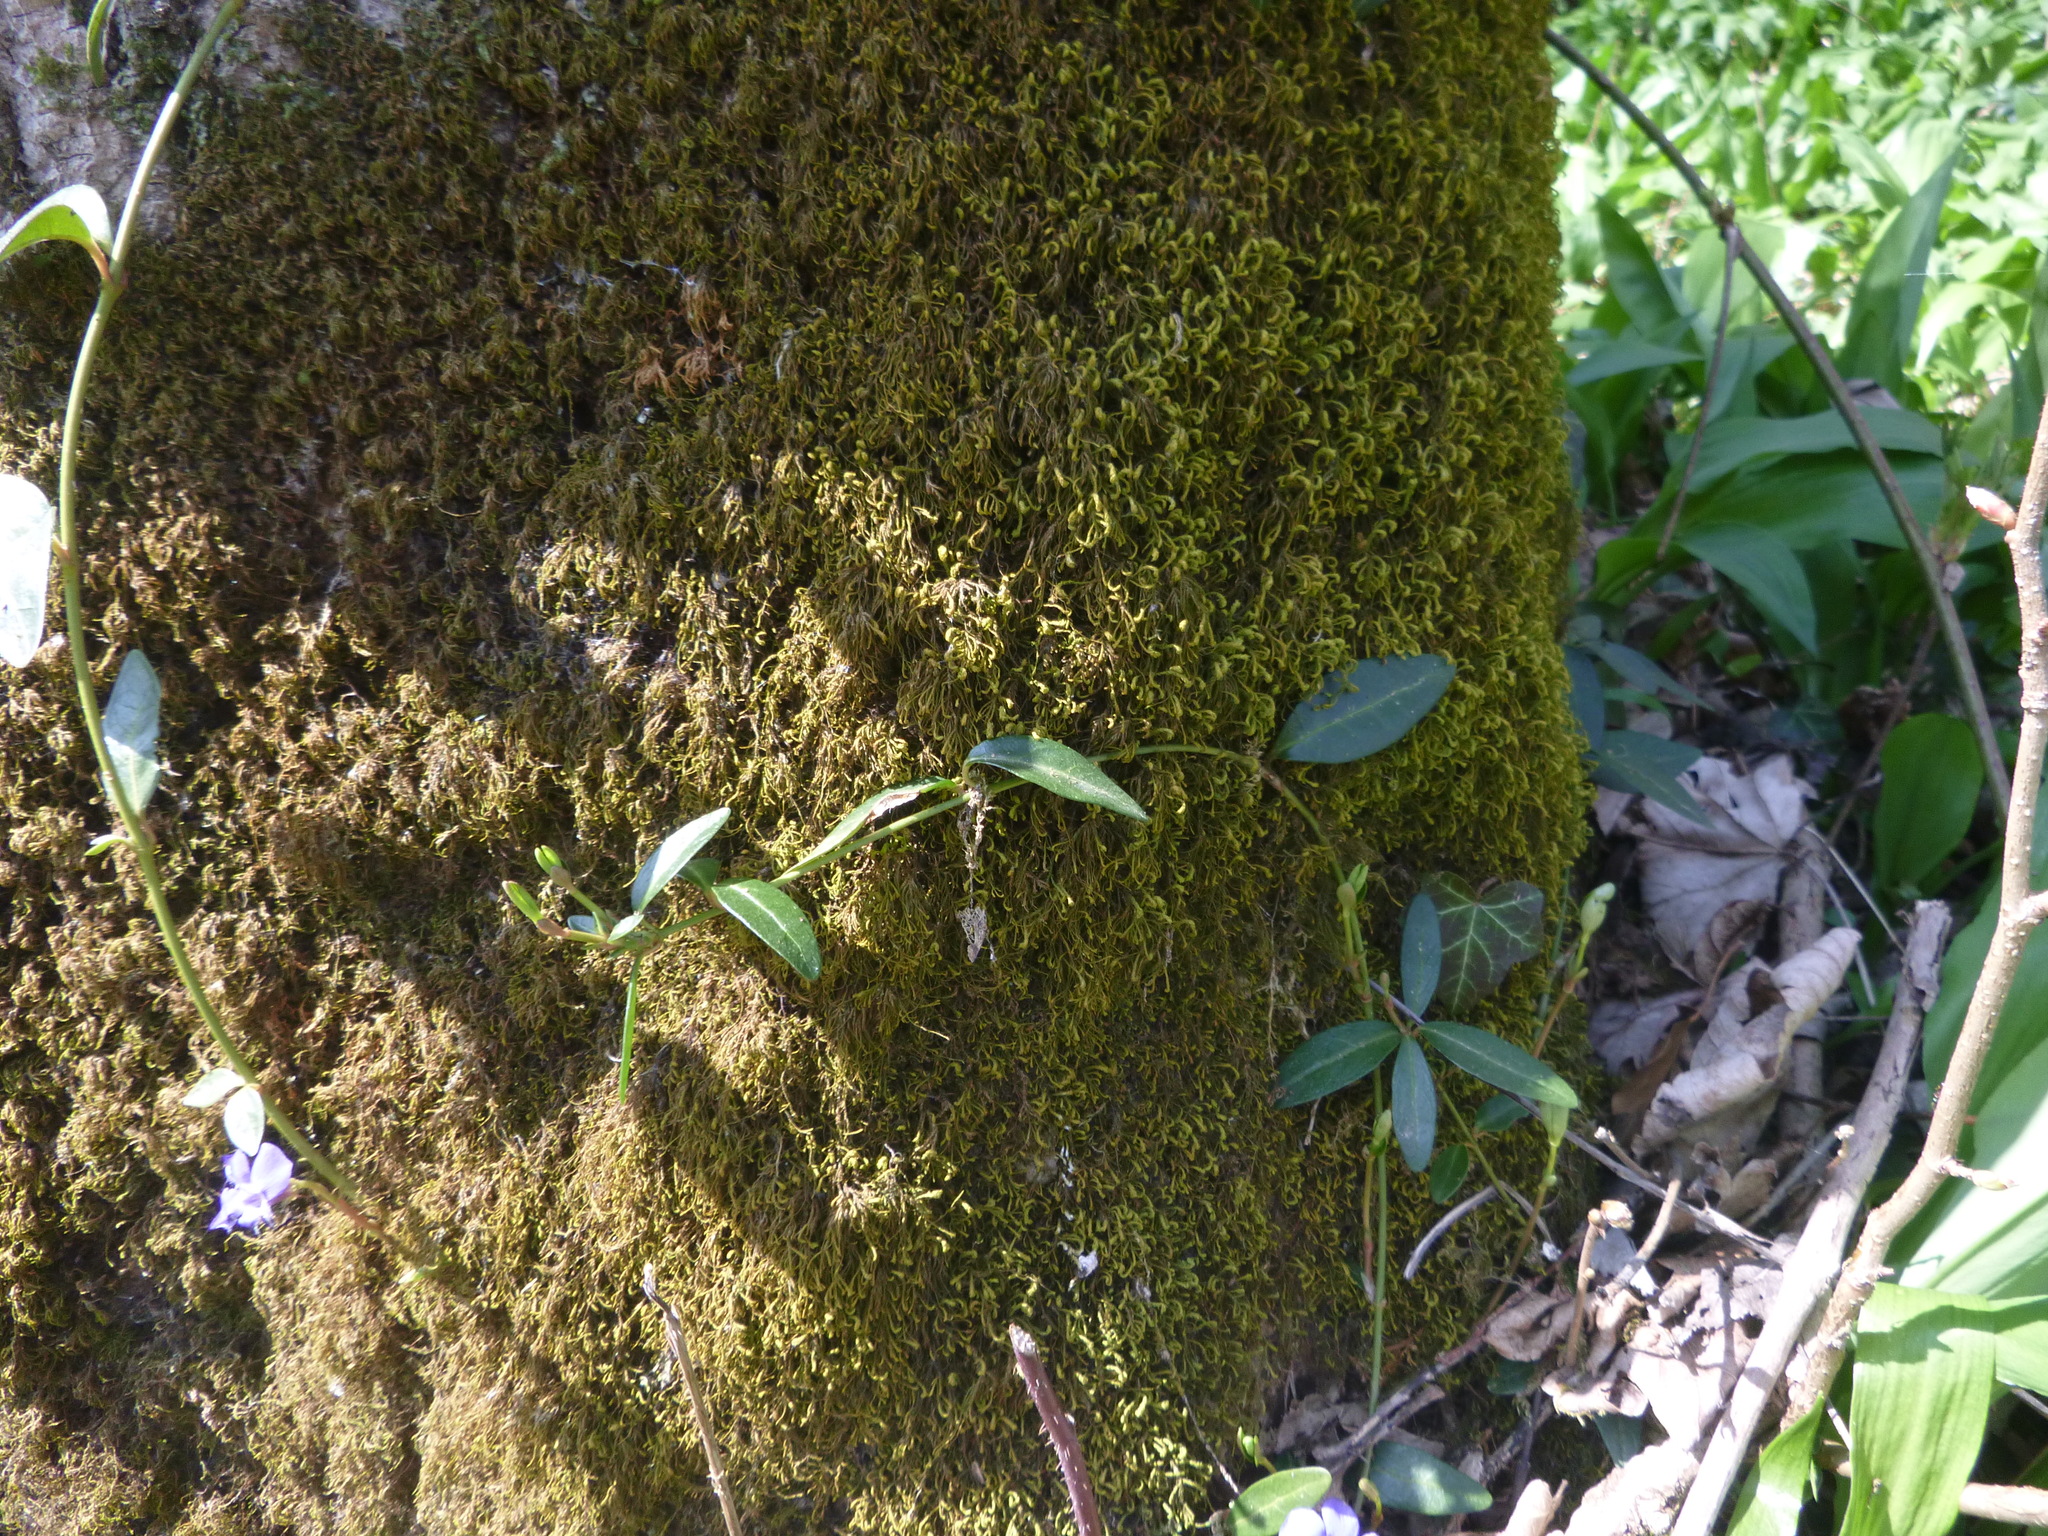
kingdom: Plantae
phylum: Tracheophyta
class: Magnoliopsida
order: Gentianales
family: Apocynaceae
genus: Vinca
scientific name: Vinca minor
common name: Lesser periwinkle
